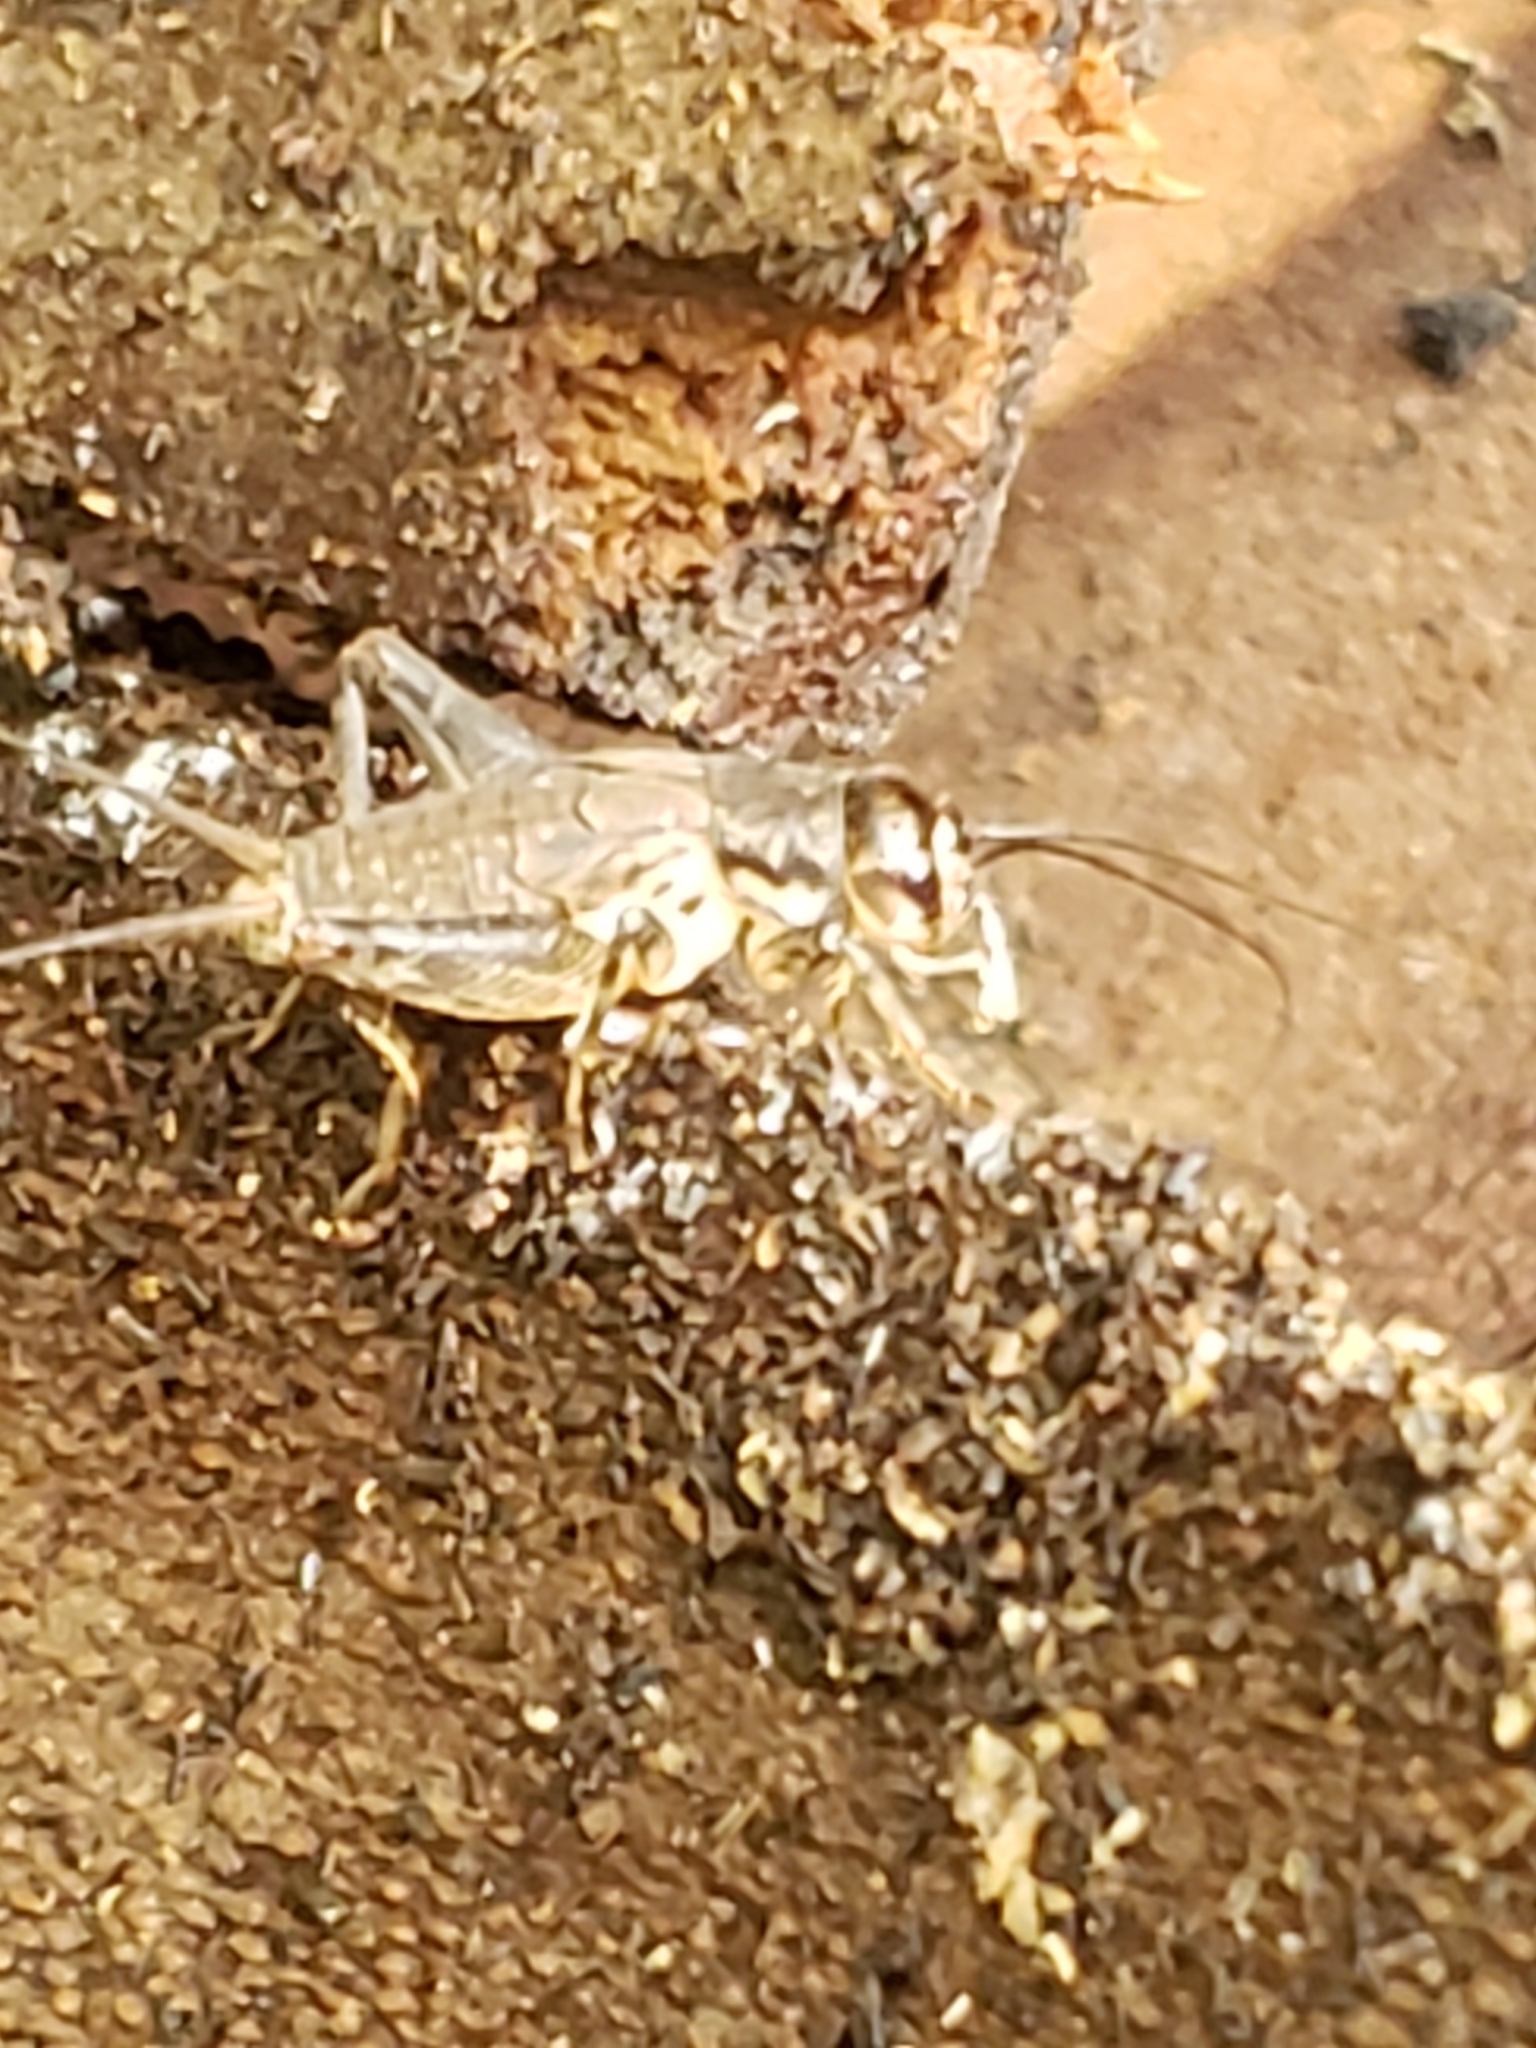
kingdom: Animalia
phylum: Arthropoda
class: Insecta
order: Orthoptera
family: Gryllidae
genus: Velarifictorus
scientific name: Velarifictorus micado
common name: Japanese burrowing cricket
